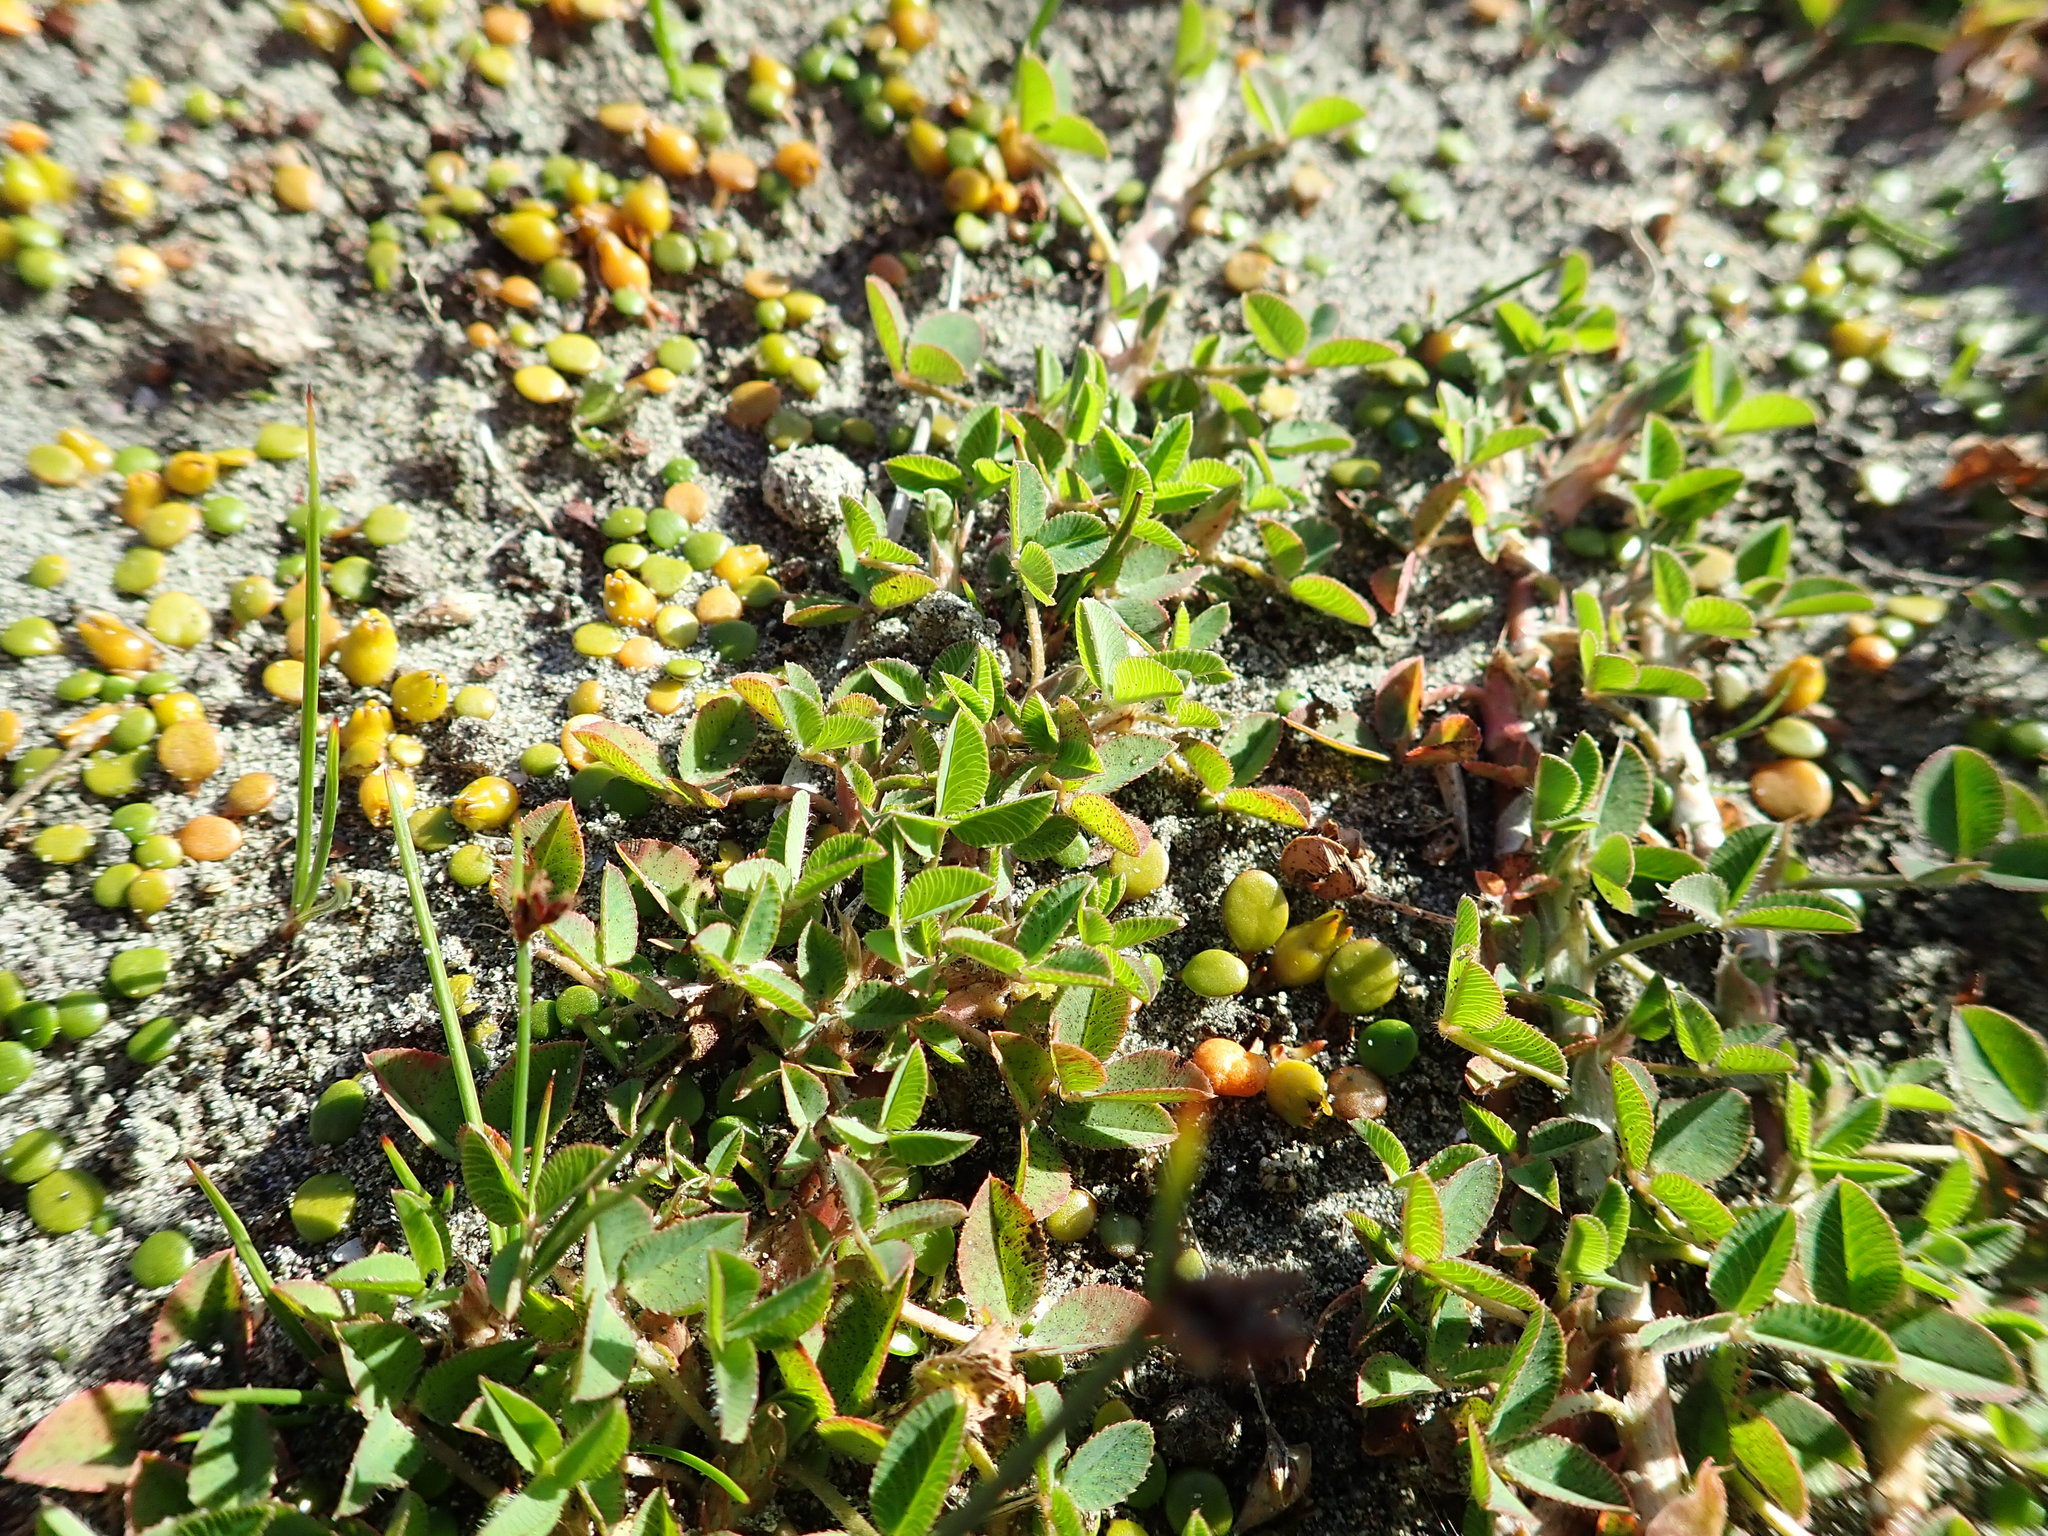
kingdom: Plantae
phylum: Tracheophyta
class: Magnoliopsida
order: Fabales
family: Fabaceae
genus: Trifolium
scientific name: Trifolium fragiferum
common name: Strawberry clover
